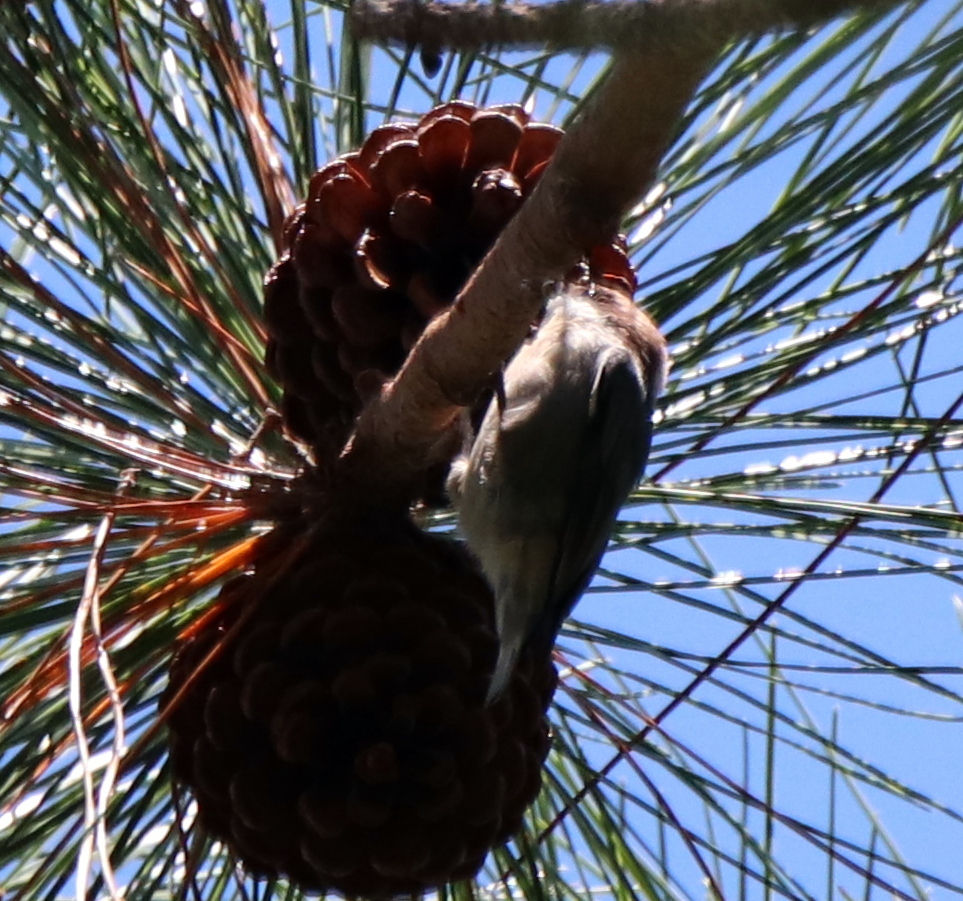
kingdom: Animalia
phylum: Chordata
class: Aves
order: Passeriformes
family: Sittidae
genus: Sitta
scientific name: Sitta pusilla
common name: Brown-headed nuthatch
